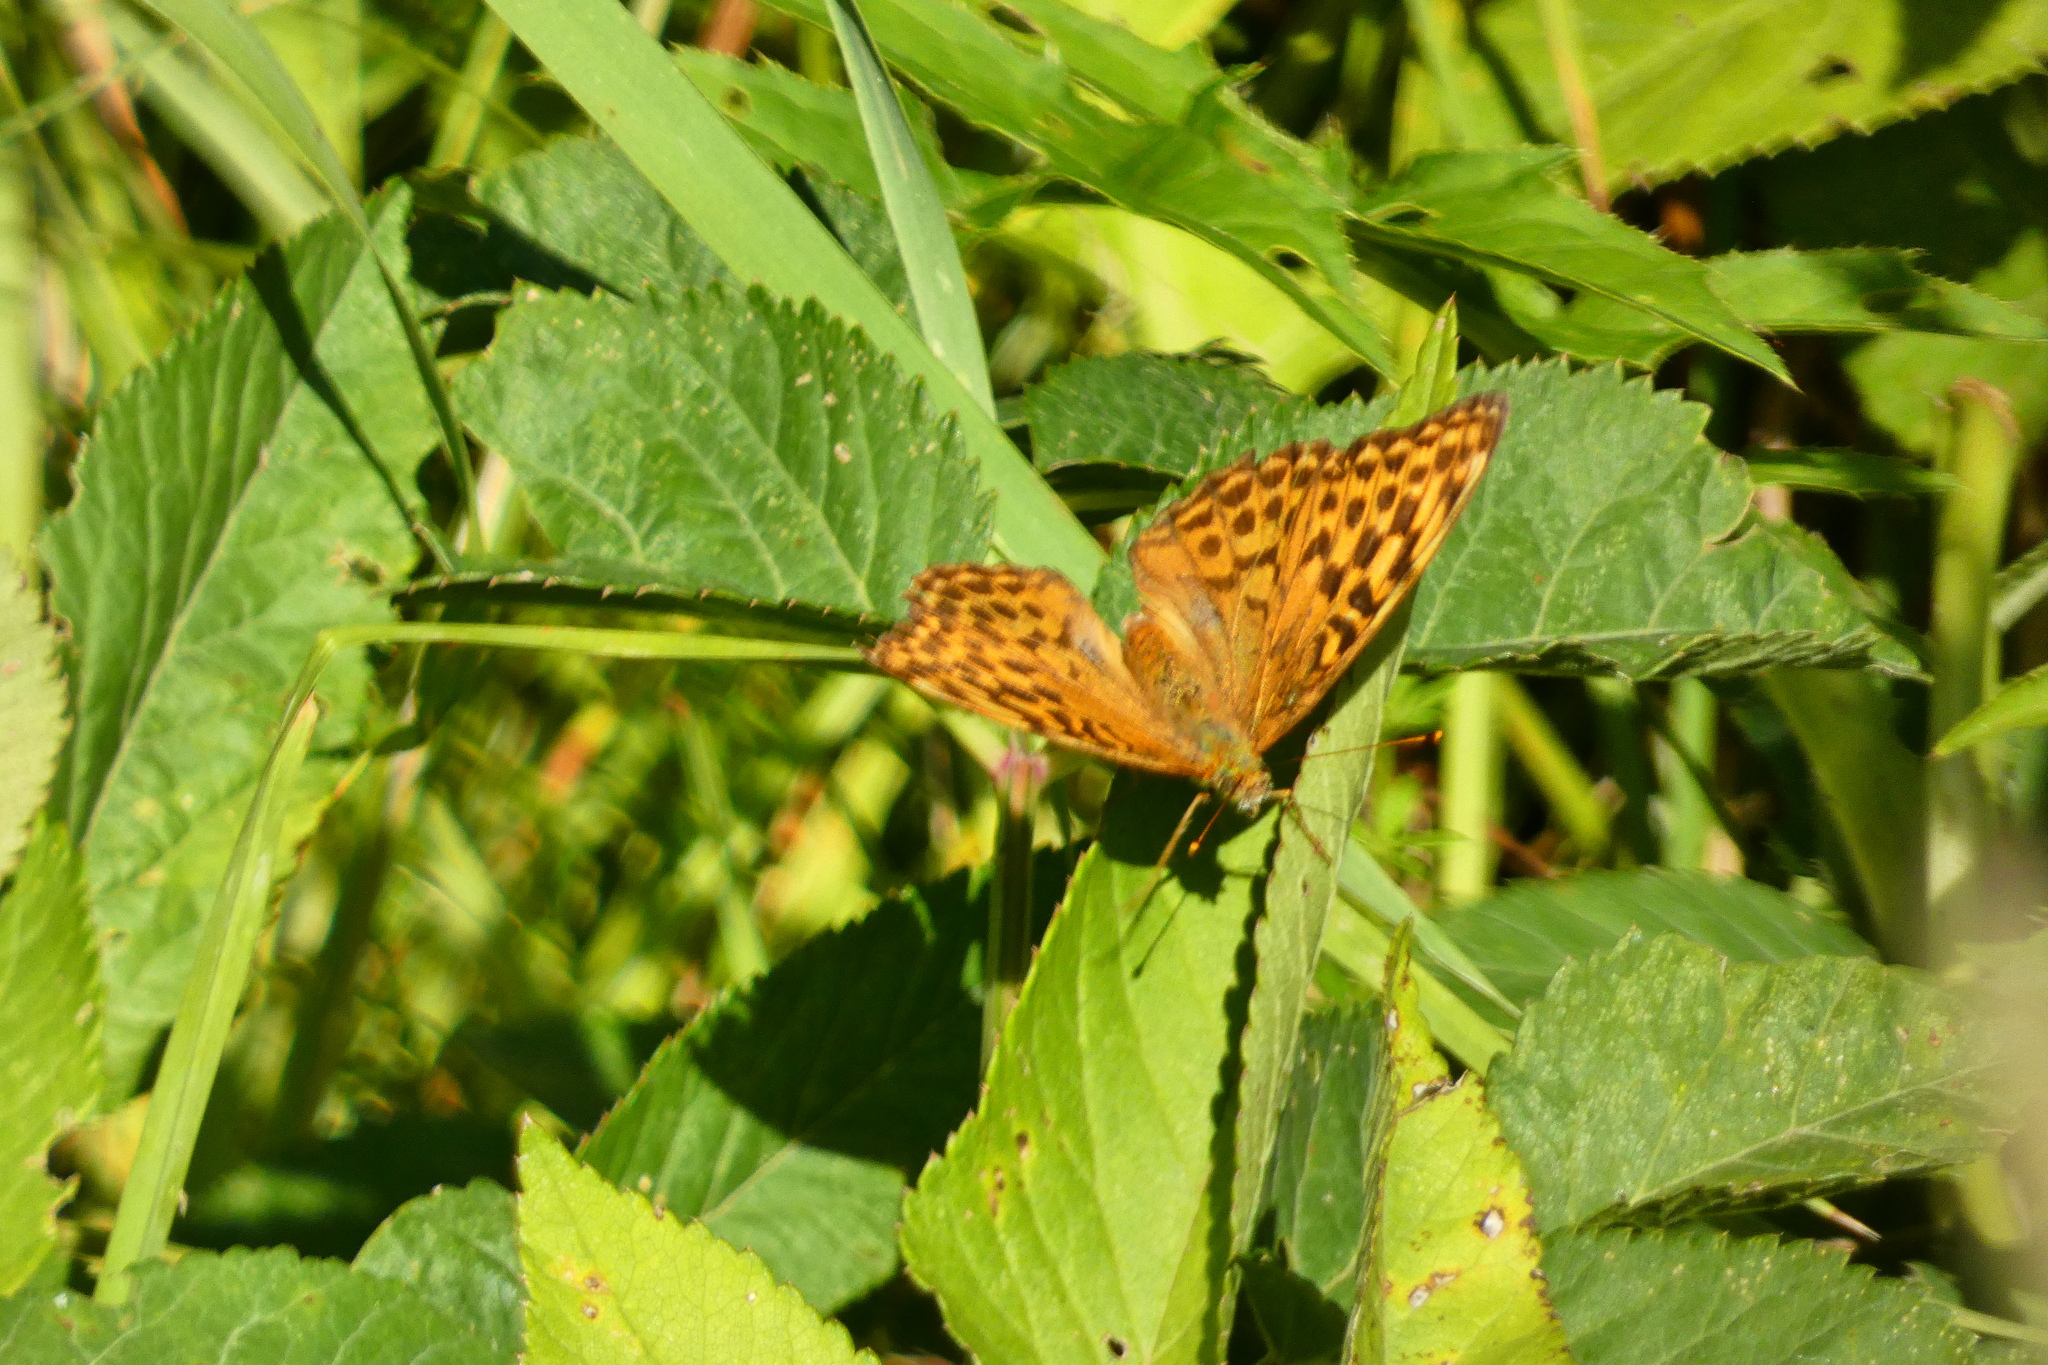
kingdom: Animalia
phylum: Arthropoda
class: Insecta
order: Lepidoptera
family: Nymphalidae
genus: Argynnis
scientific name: Argynnis paphia
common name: Silver-washed fritillary
